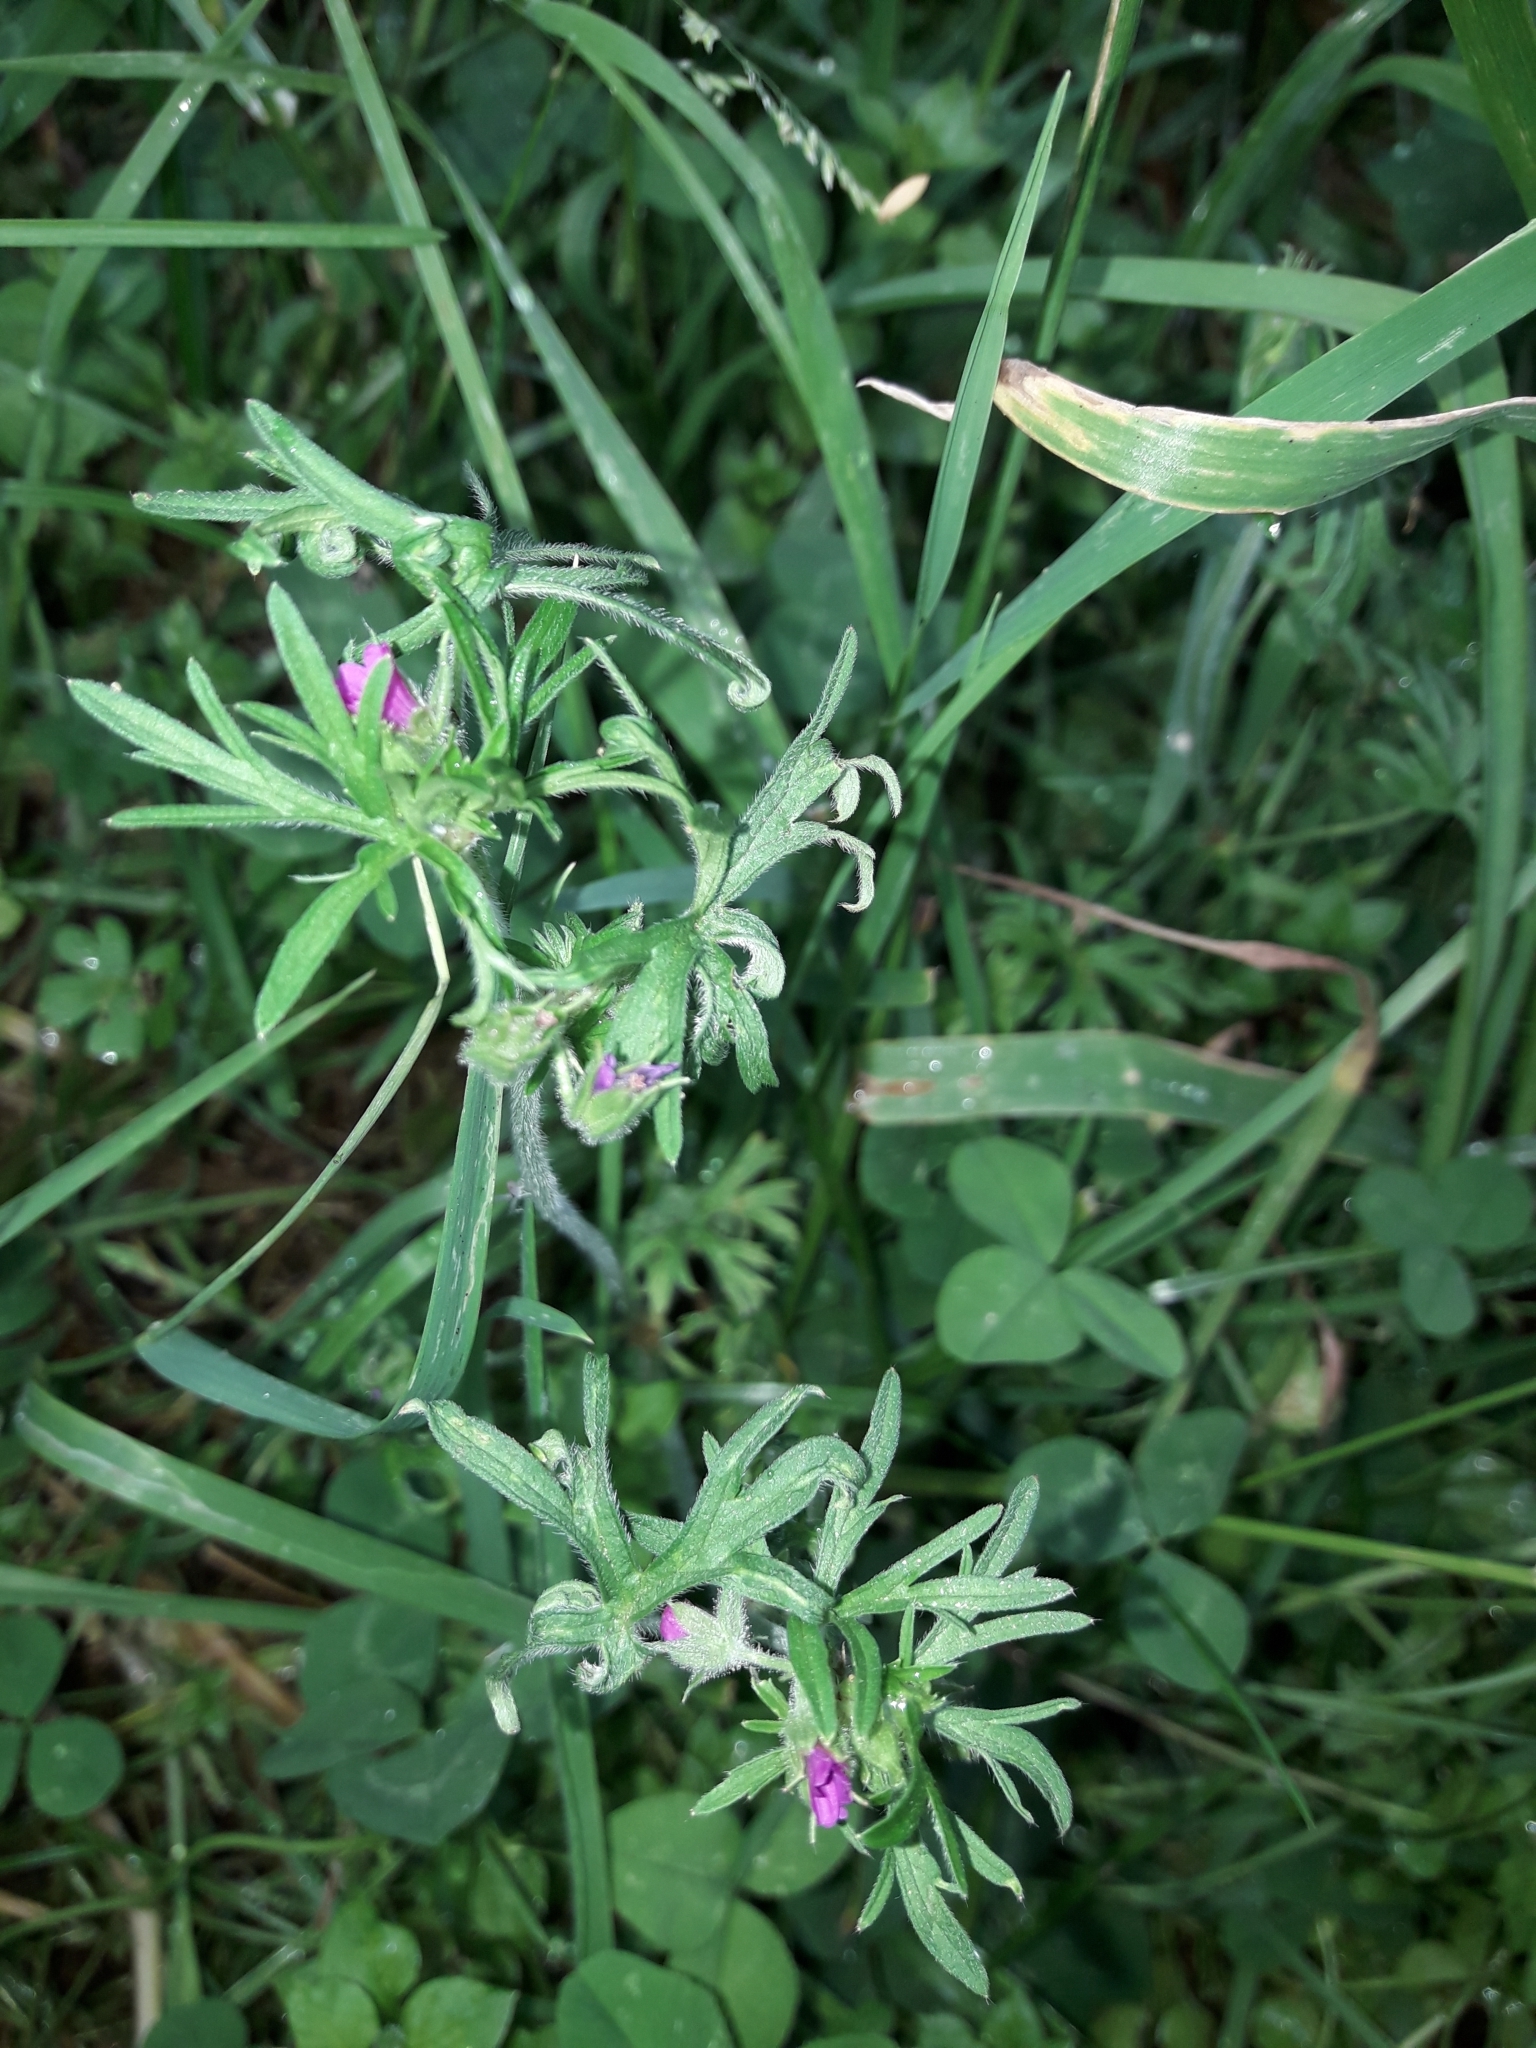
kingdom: Plantae
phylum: Tracheophyta
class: Magnoliopsida
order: Geraniales
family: Geraniaceae
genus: Geranium
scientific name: Geranium dissectum
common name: Cut-leaved crane's-bill
